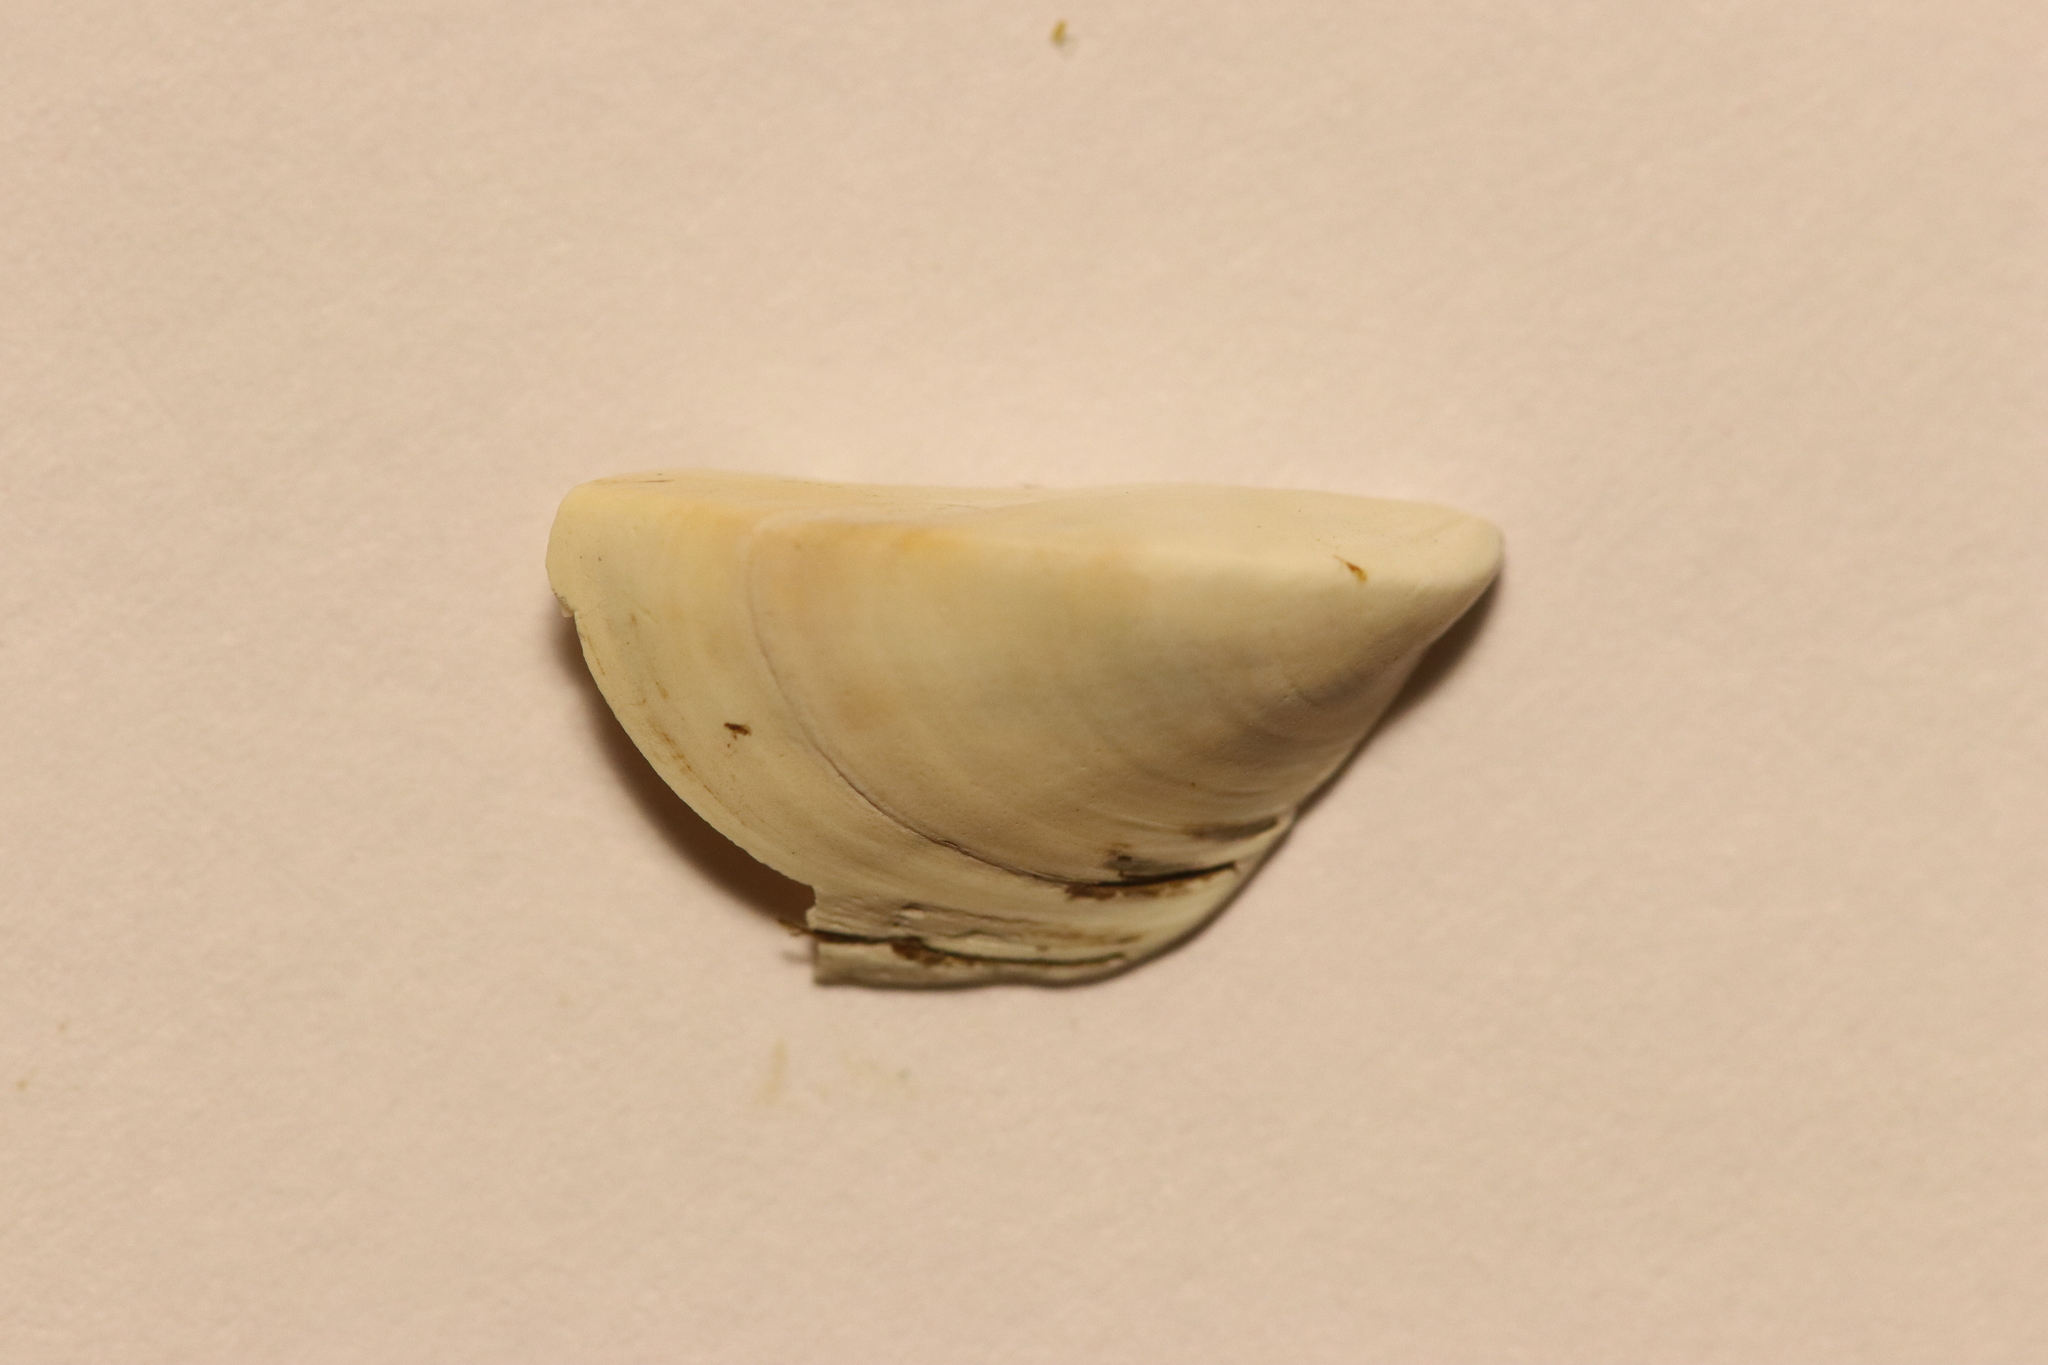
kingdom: Animalia
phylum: Mollusca
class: Bivalvia
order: Myida
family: Dreissenidae
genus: Dreissena
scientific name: Dreissena polymorpha
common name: Zebra mussel
